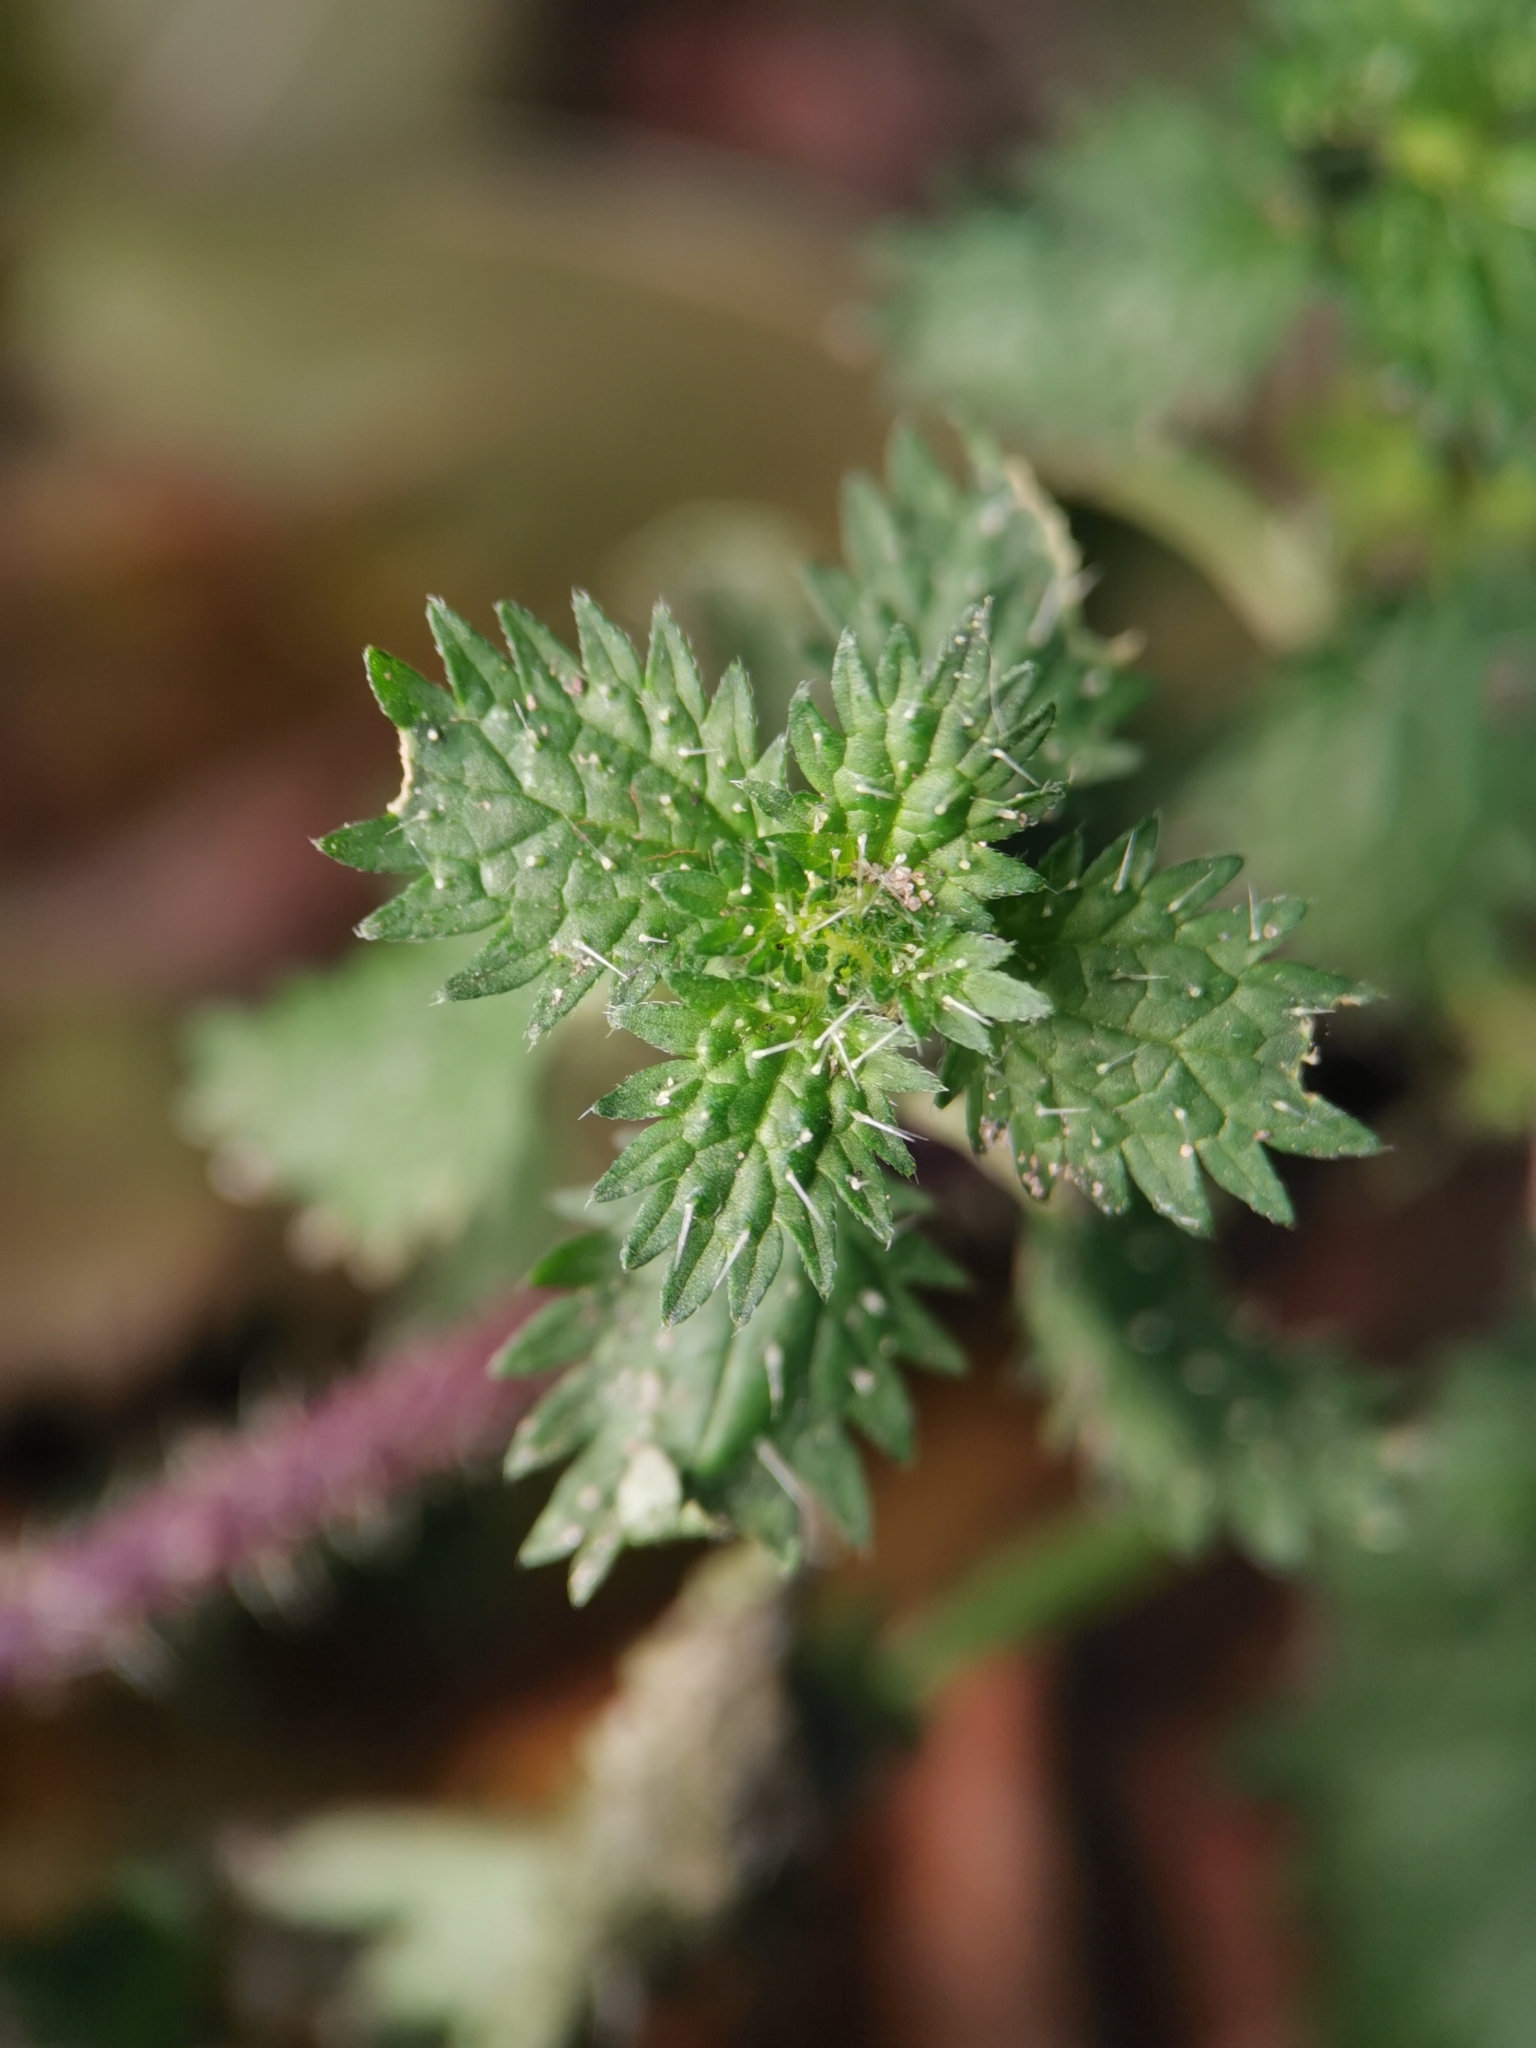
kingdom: Plantae
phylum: Tracheophyta
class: Magnoliopsida
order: Rosales
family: Urticaceae
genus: Urtica
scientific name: Urtica urens
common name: Dwarf nettle
